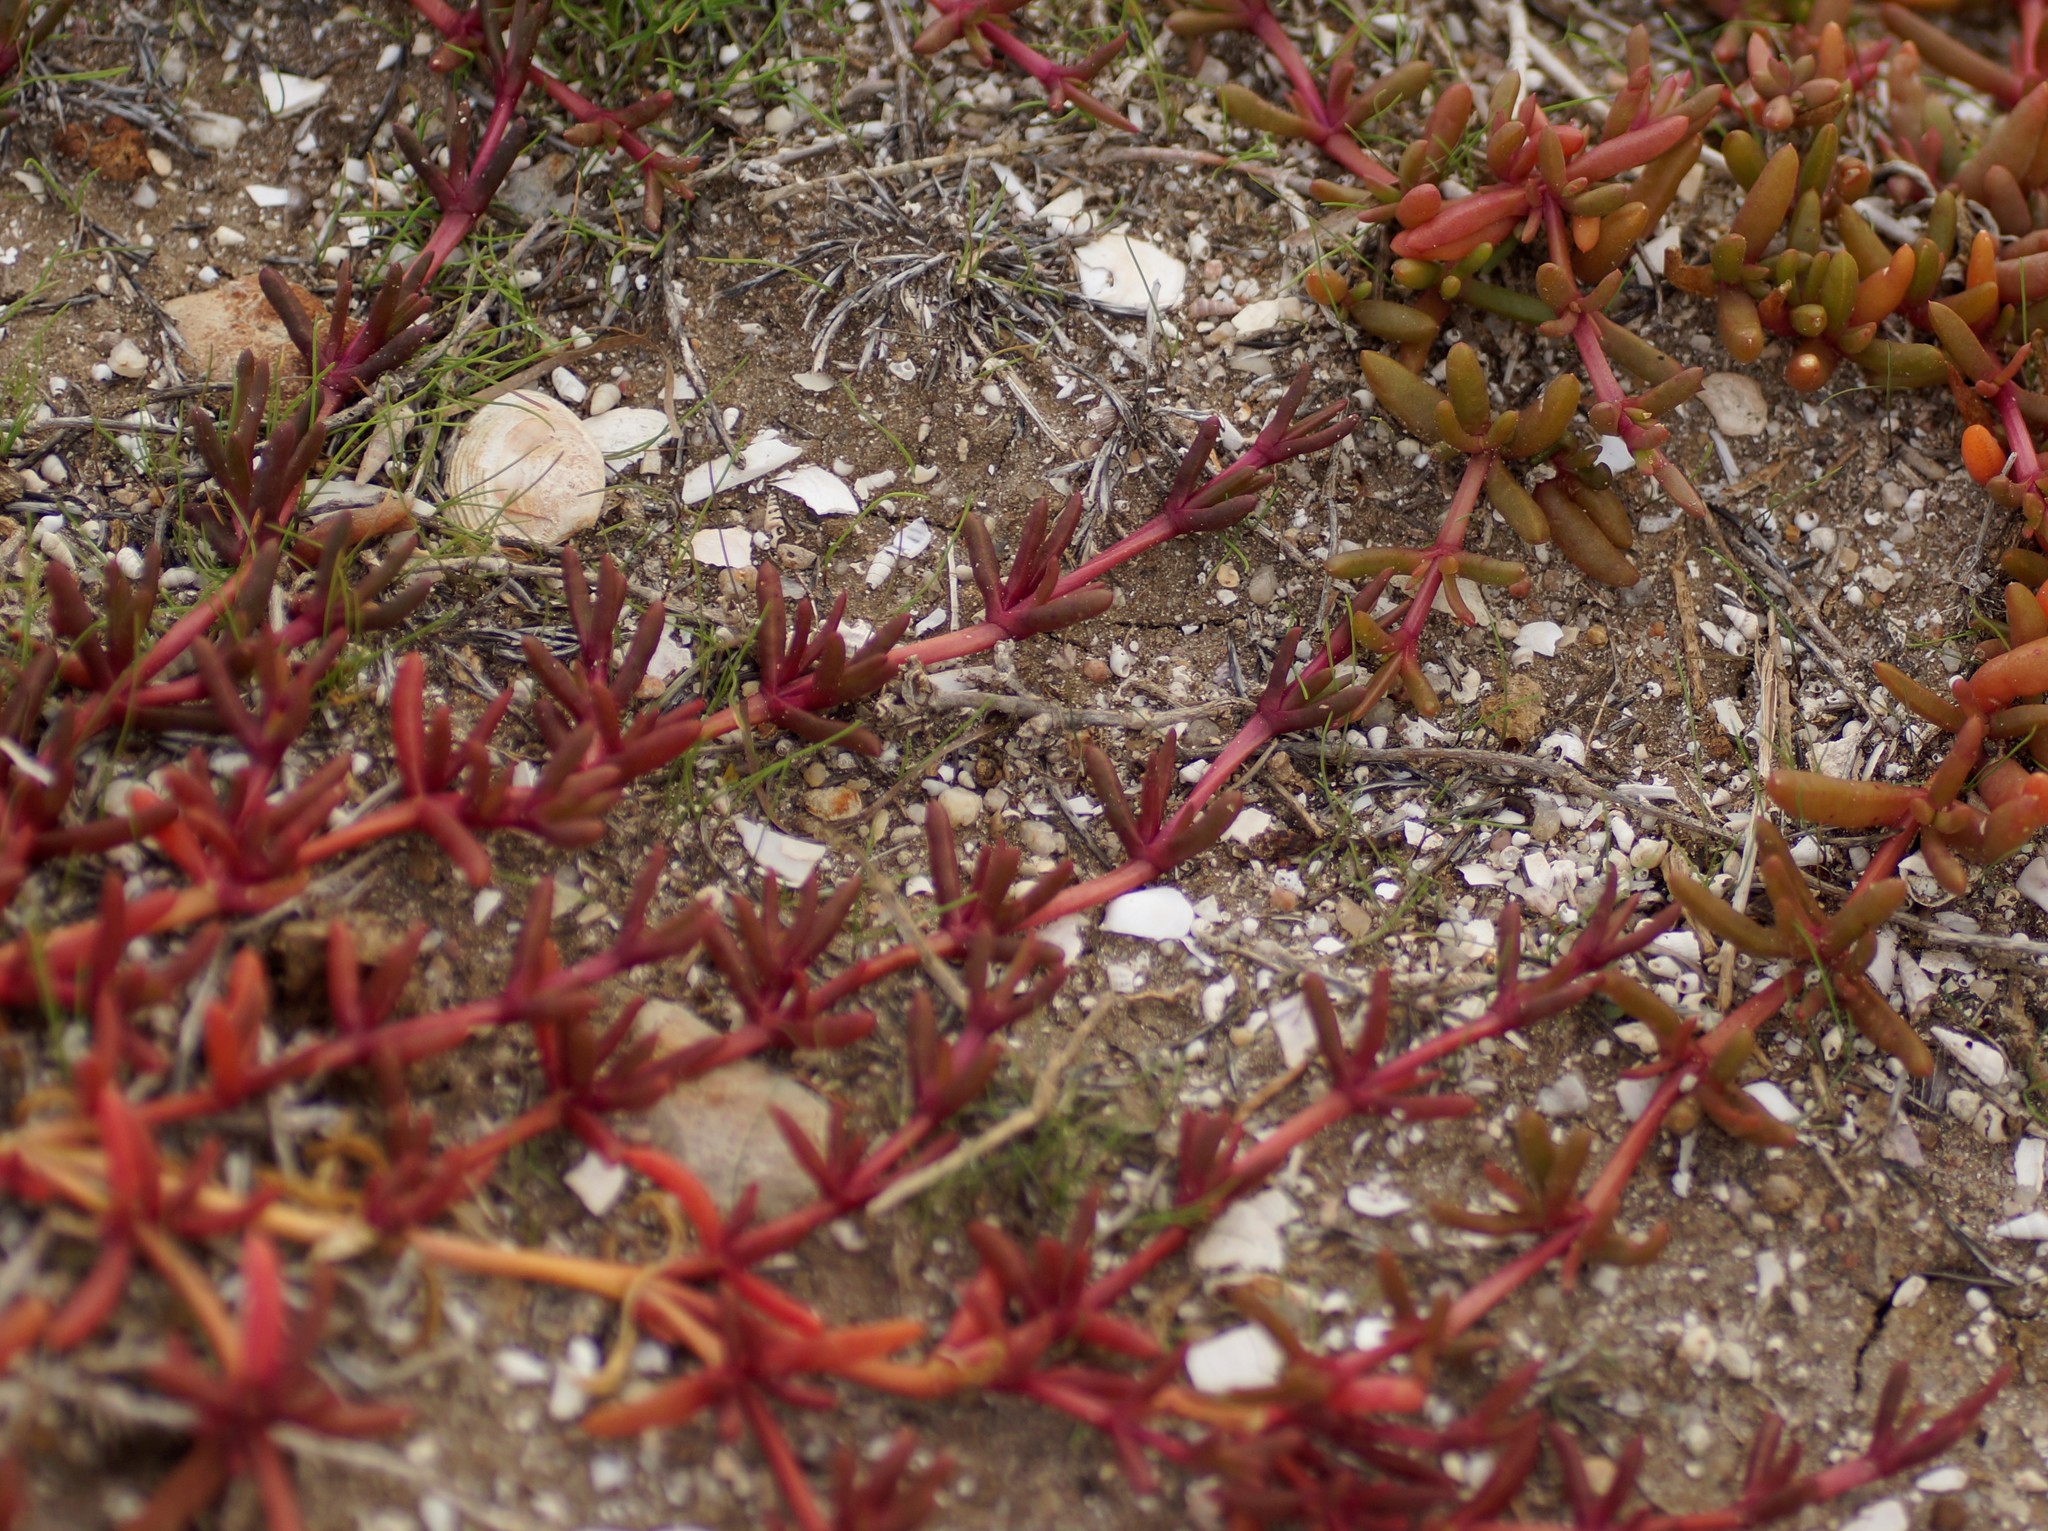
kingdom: Plantae
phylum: Tracheophyta
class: Magnoliopsida
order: Caryophyllales
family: Aizoaceae
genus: Carpobrotus
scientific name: Carpobrotus rossii
